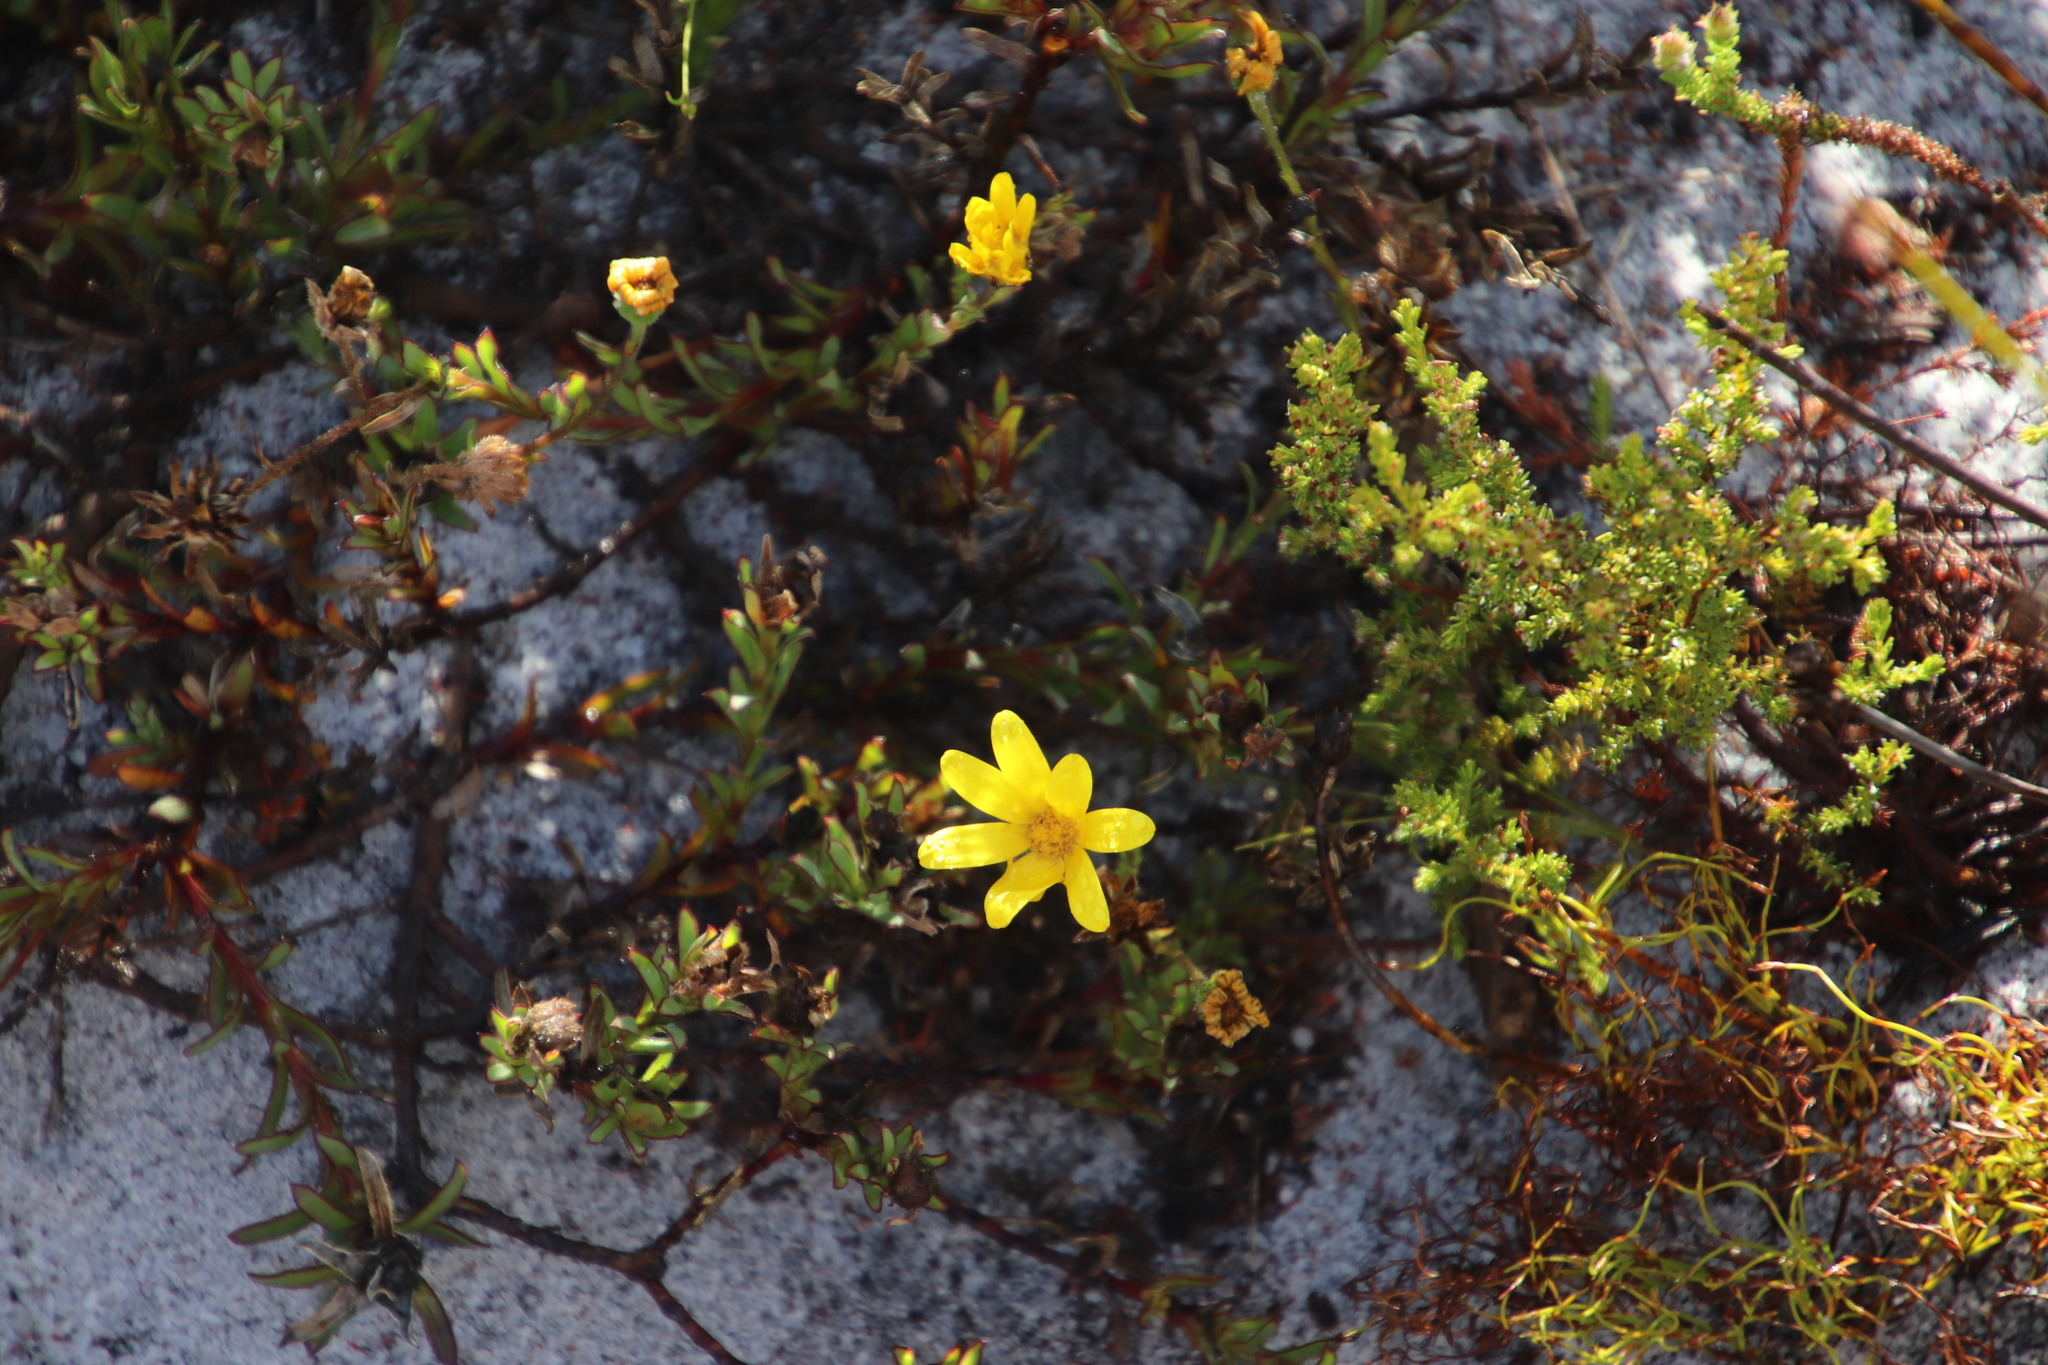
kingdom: Plantae
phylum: Tracheophyta
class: Magnoliopsida
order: Asterales
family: Asteraceae
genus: Osteospermum
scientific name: Osteospermum polygaloides
